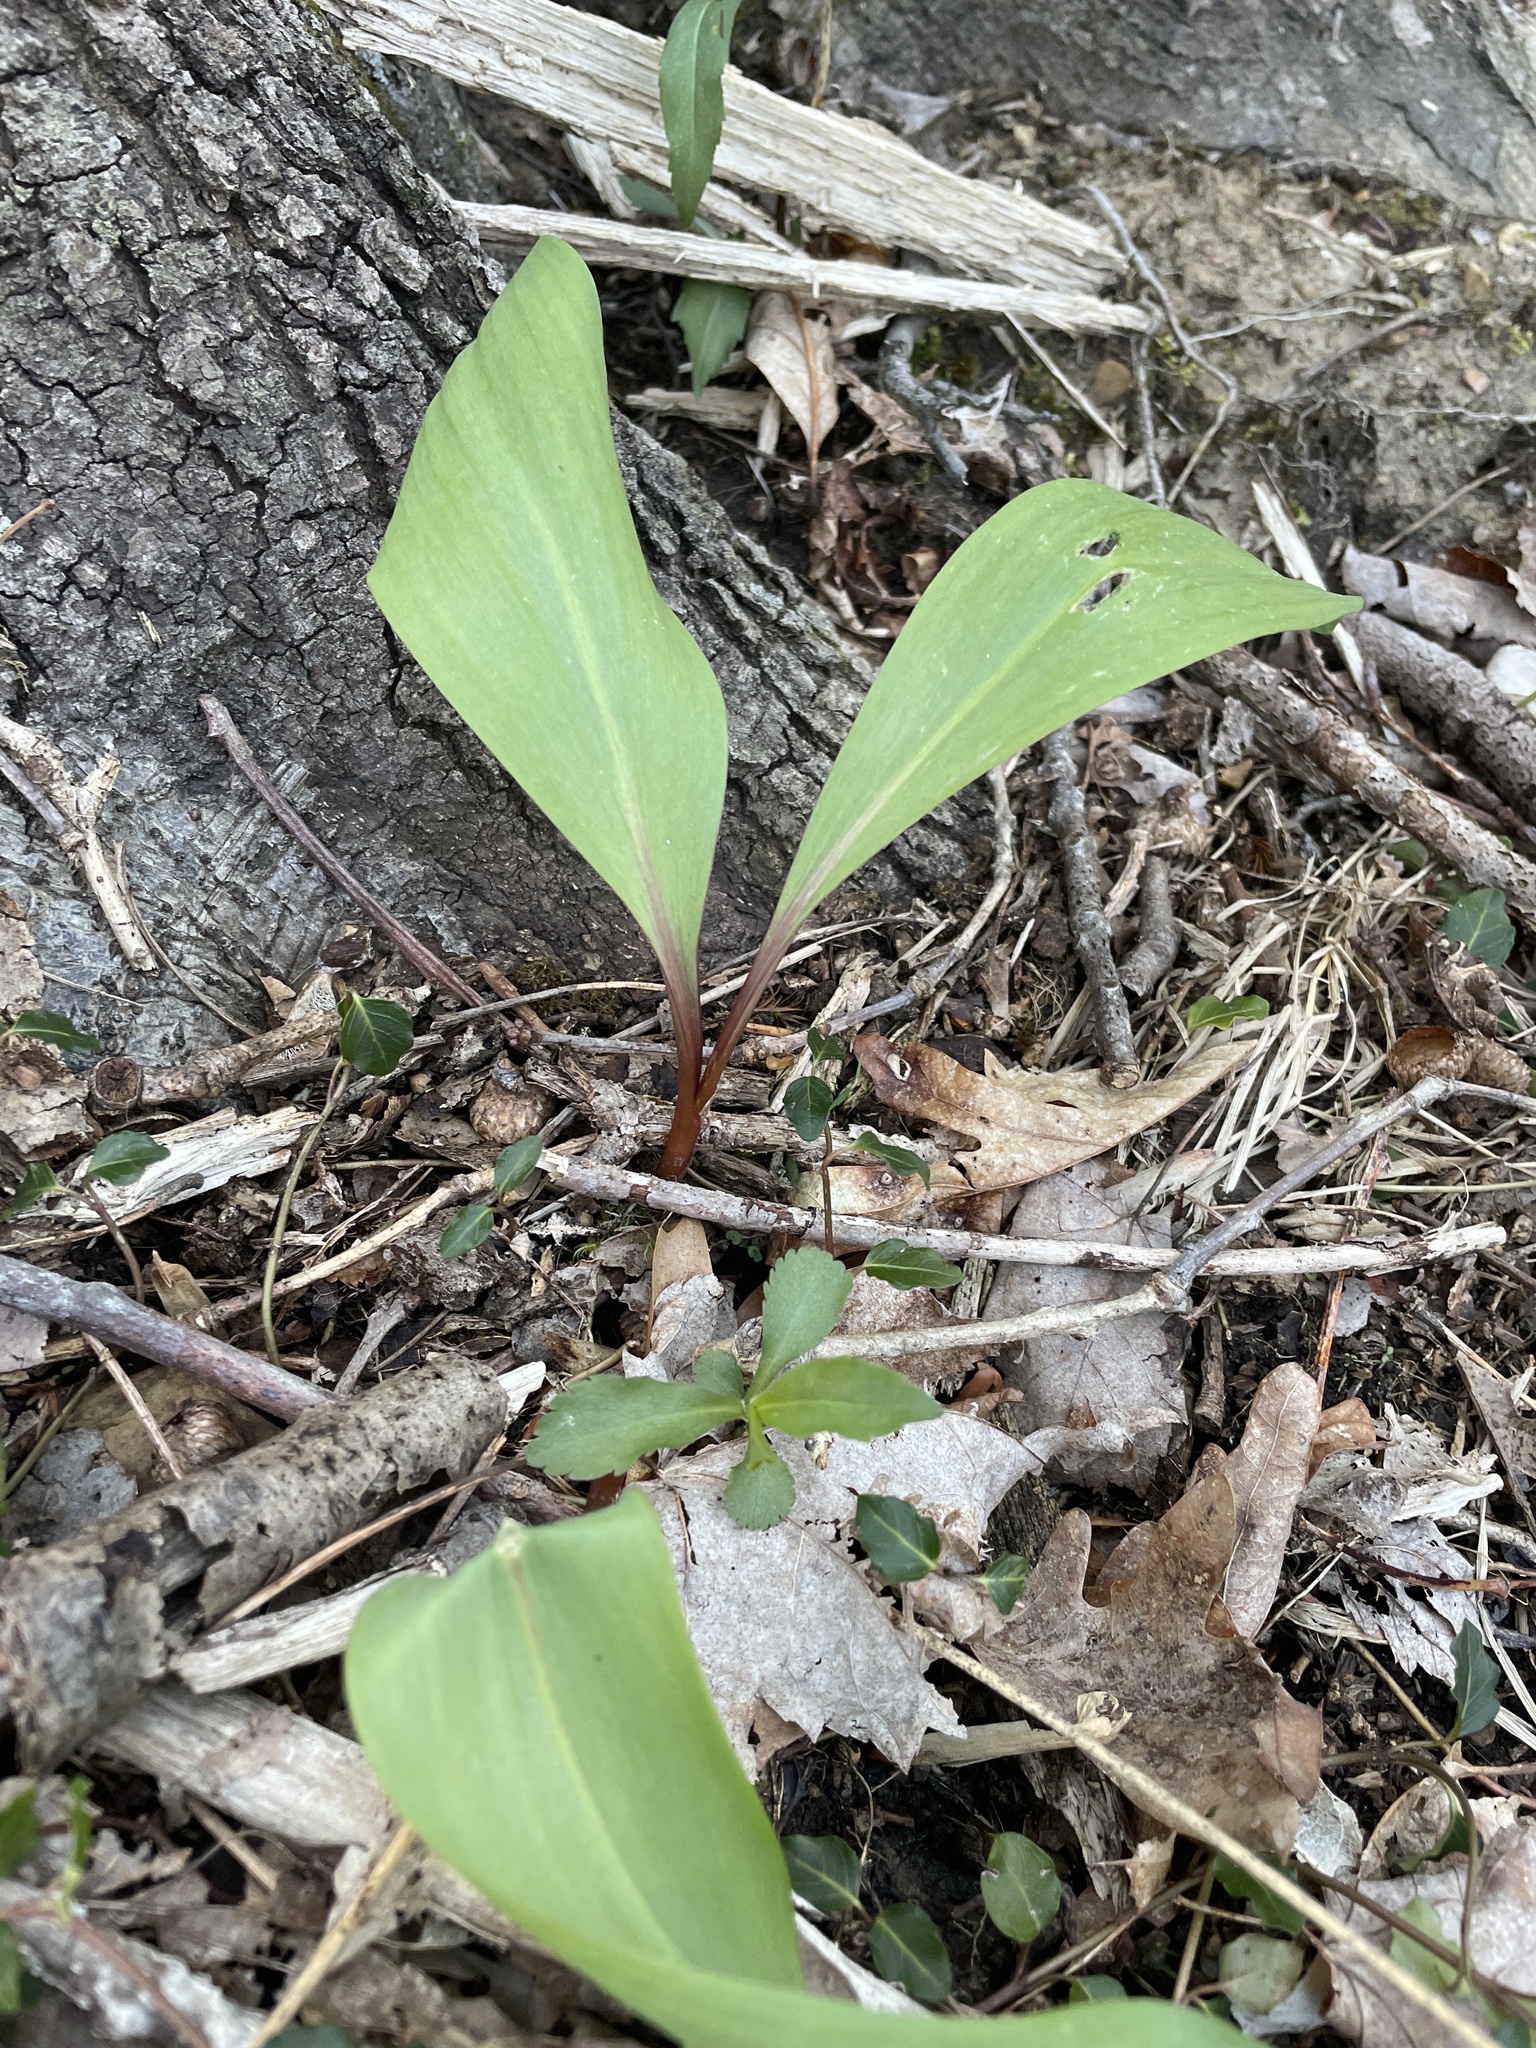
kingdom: Plantae
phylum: Tracheophyta
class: Liliopsida
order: Asparagales
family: Amaryllidaceae
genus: Allium
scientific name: Allium tricoccum
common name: Ramp
